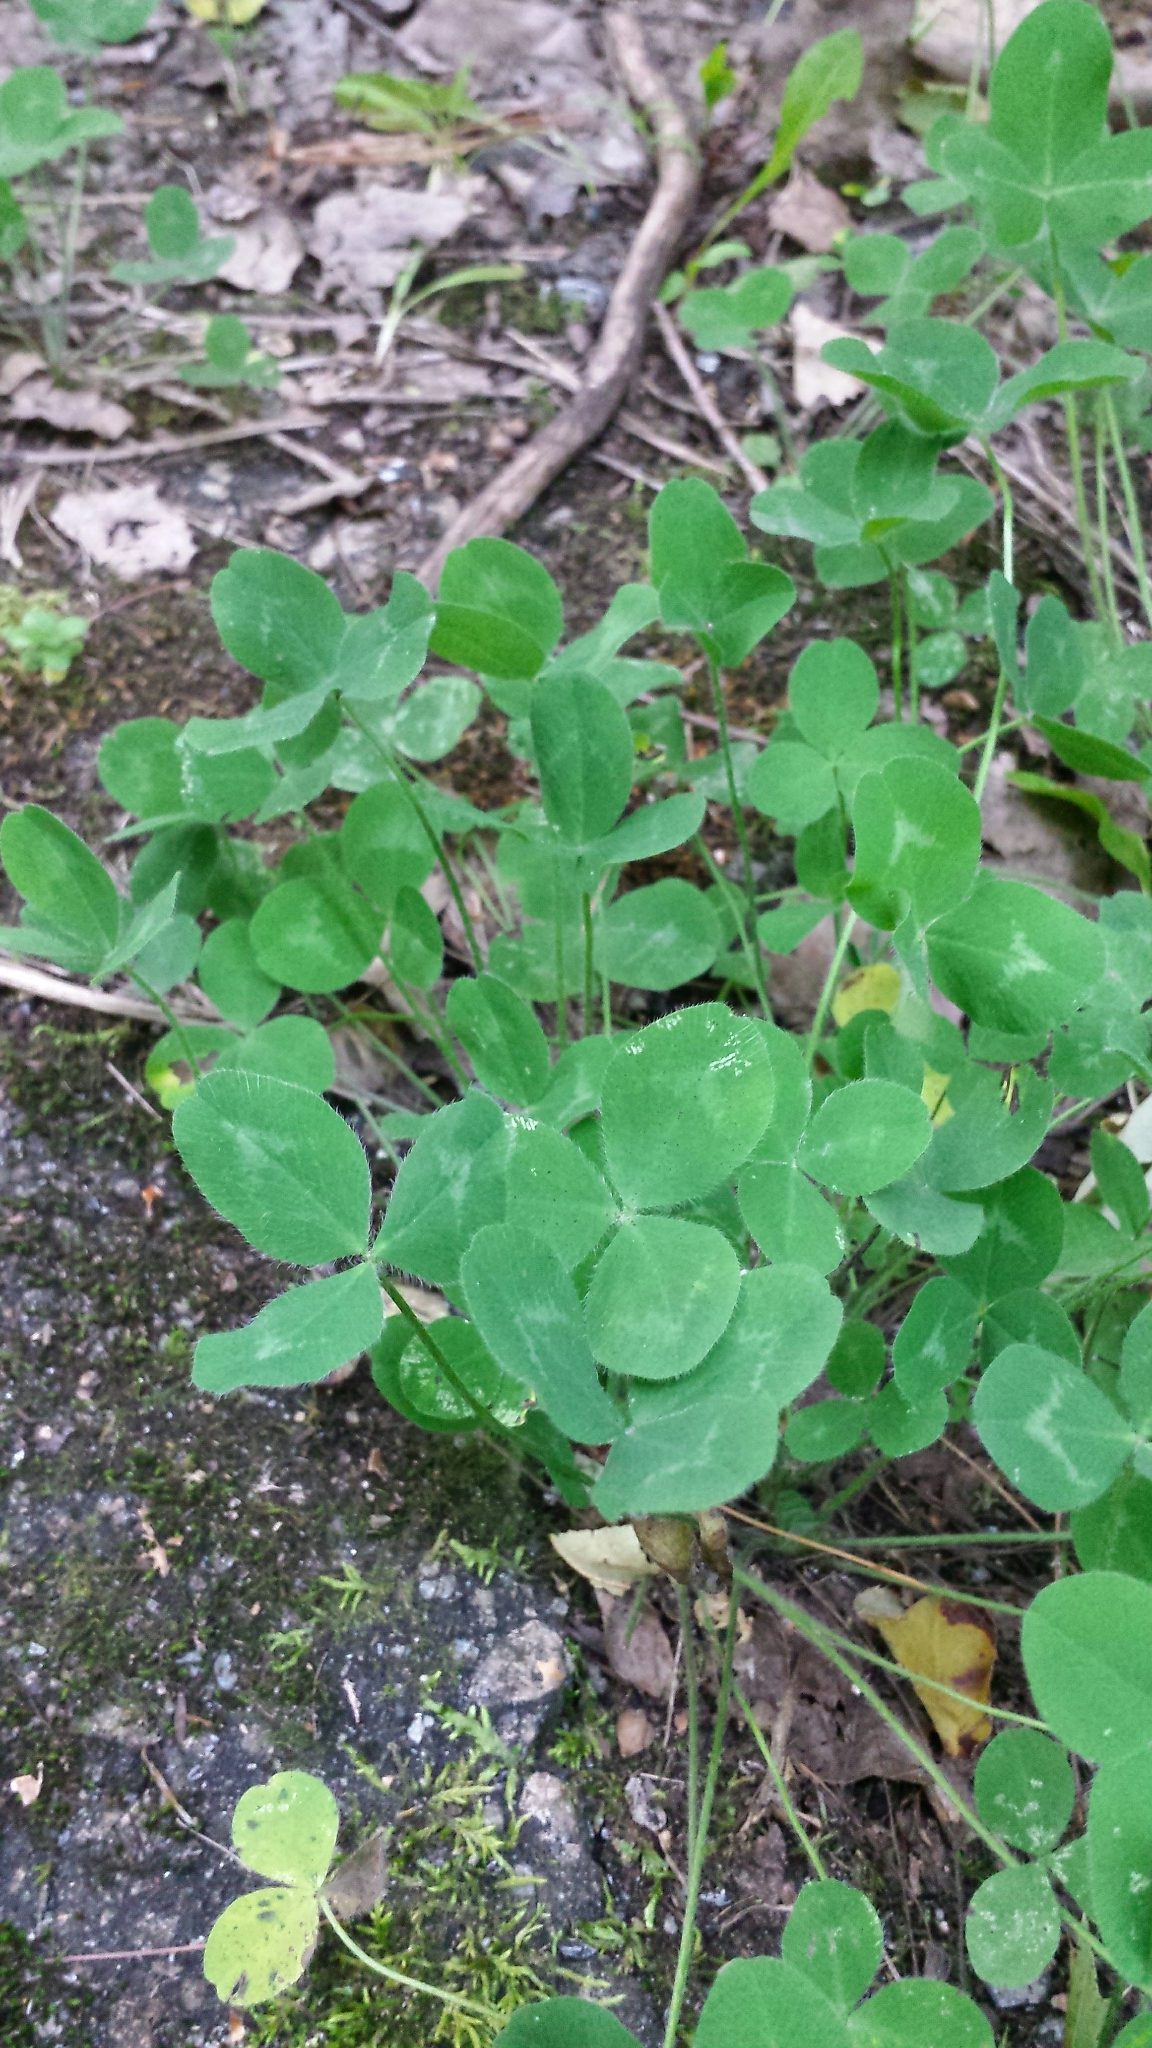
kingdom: Plantae
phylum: Tracheophyta
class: Magnoliopsida
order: Fabales
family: Fabaceae
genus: Trifolium
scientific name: Trifolium pratense
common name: Red clover
